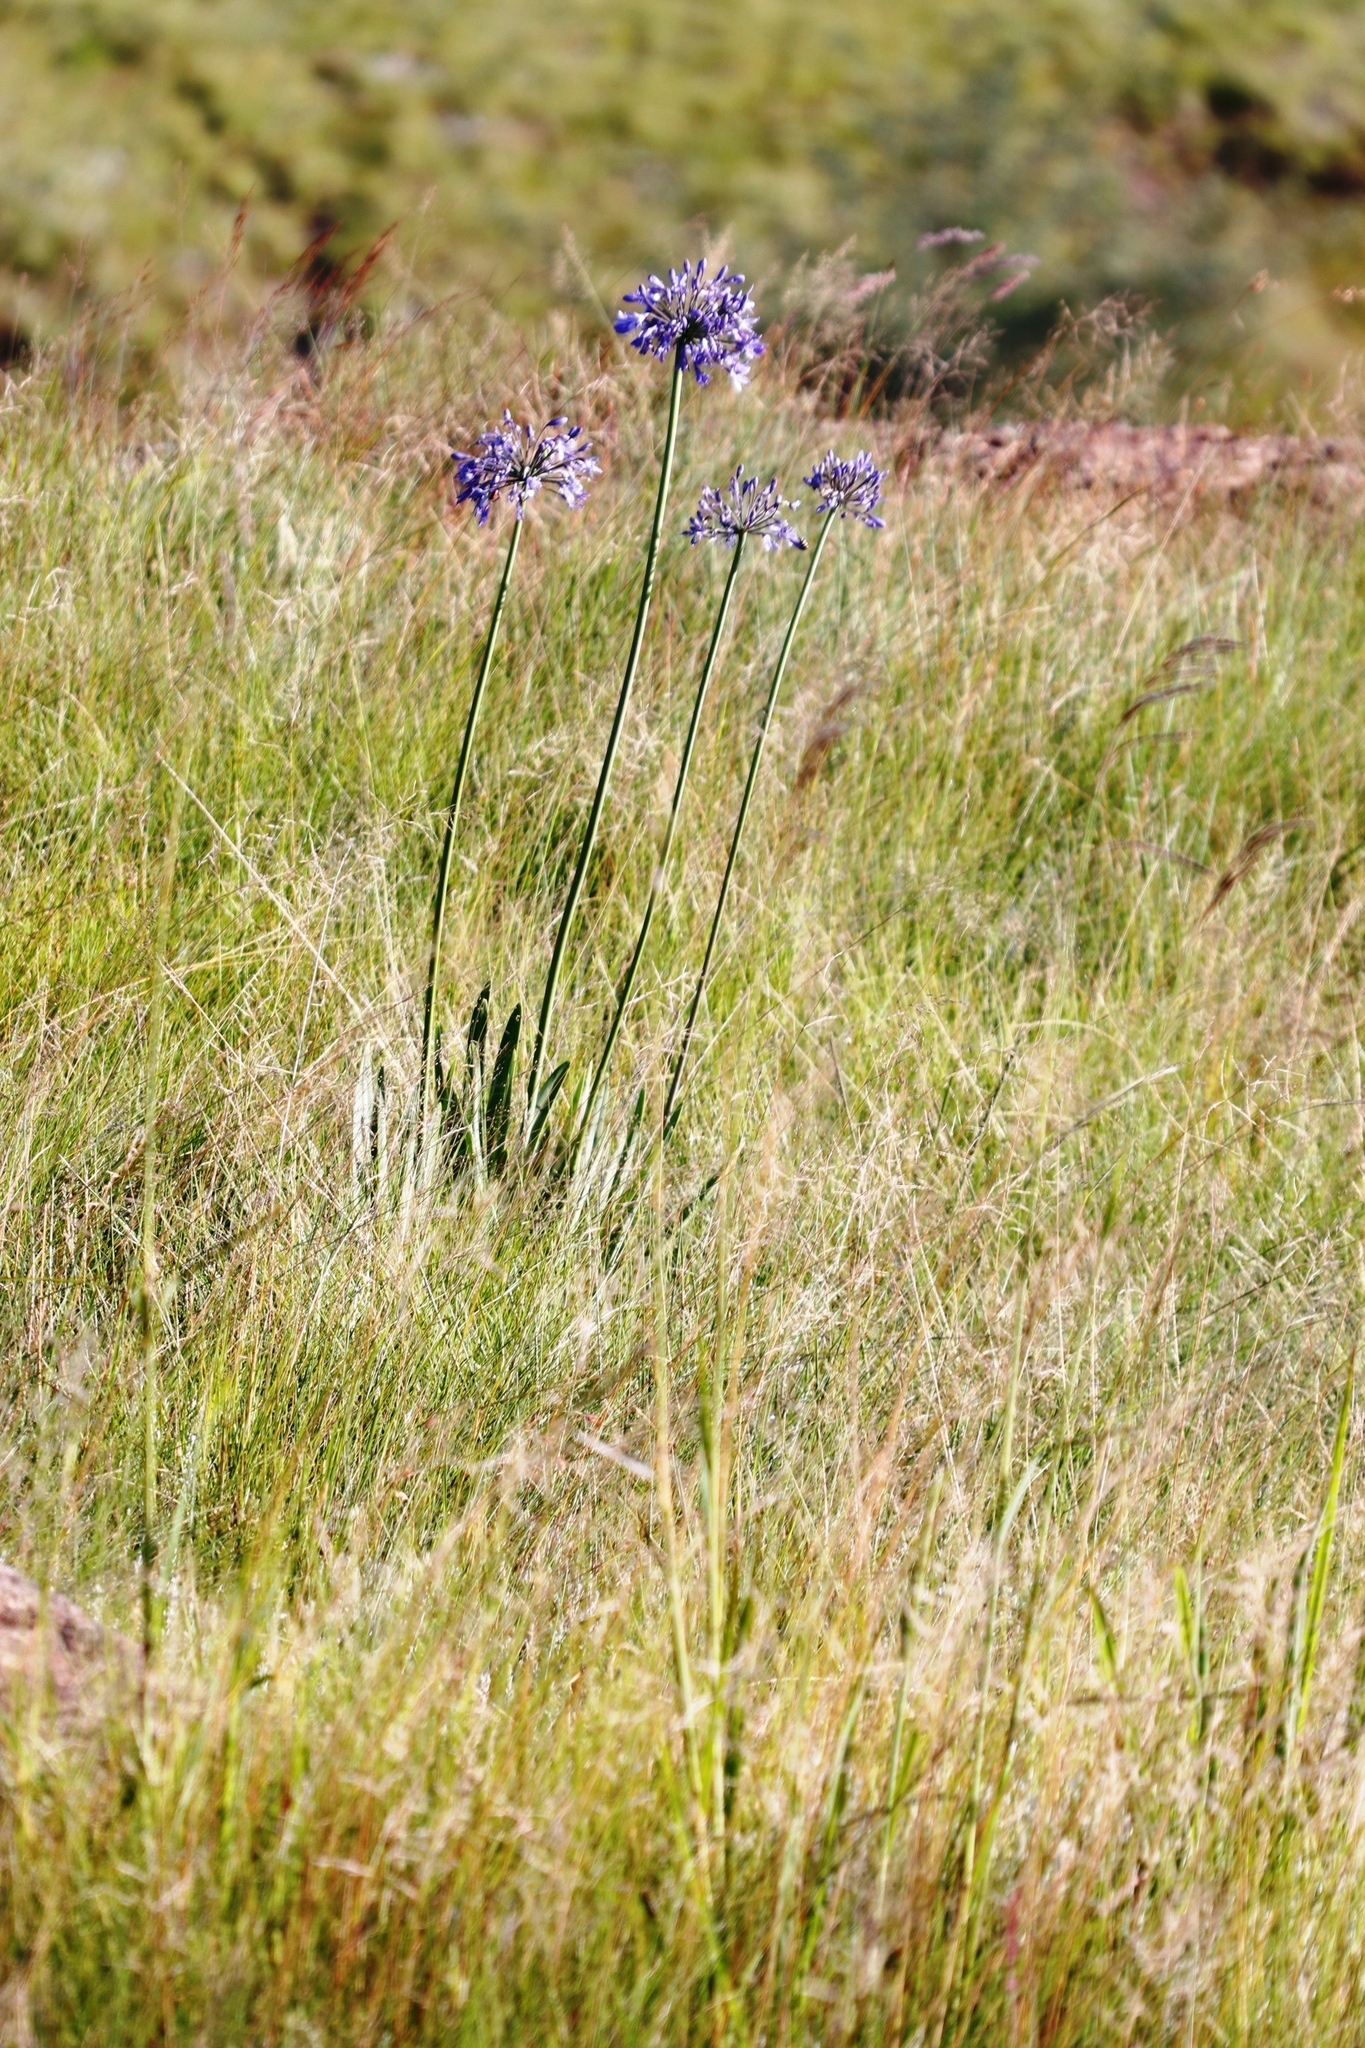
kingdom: Plantae
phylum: Tracheophyta
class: Liliopsida
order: Asparagales
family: Amaryllidaceae
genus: Agapanthus
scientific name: Agapanthus campanulatus
